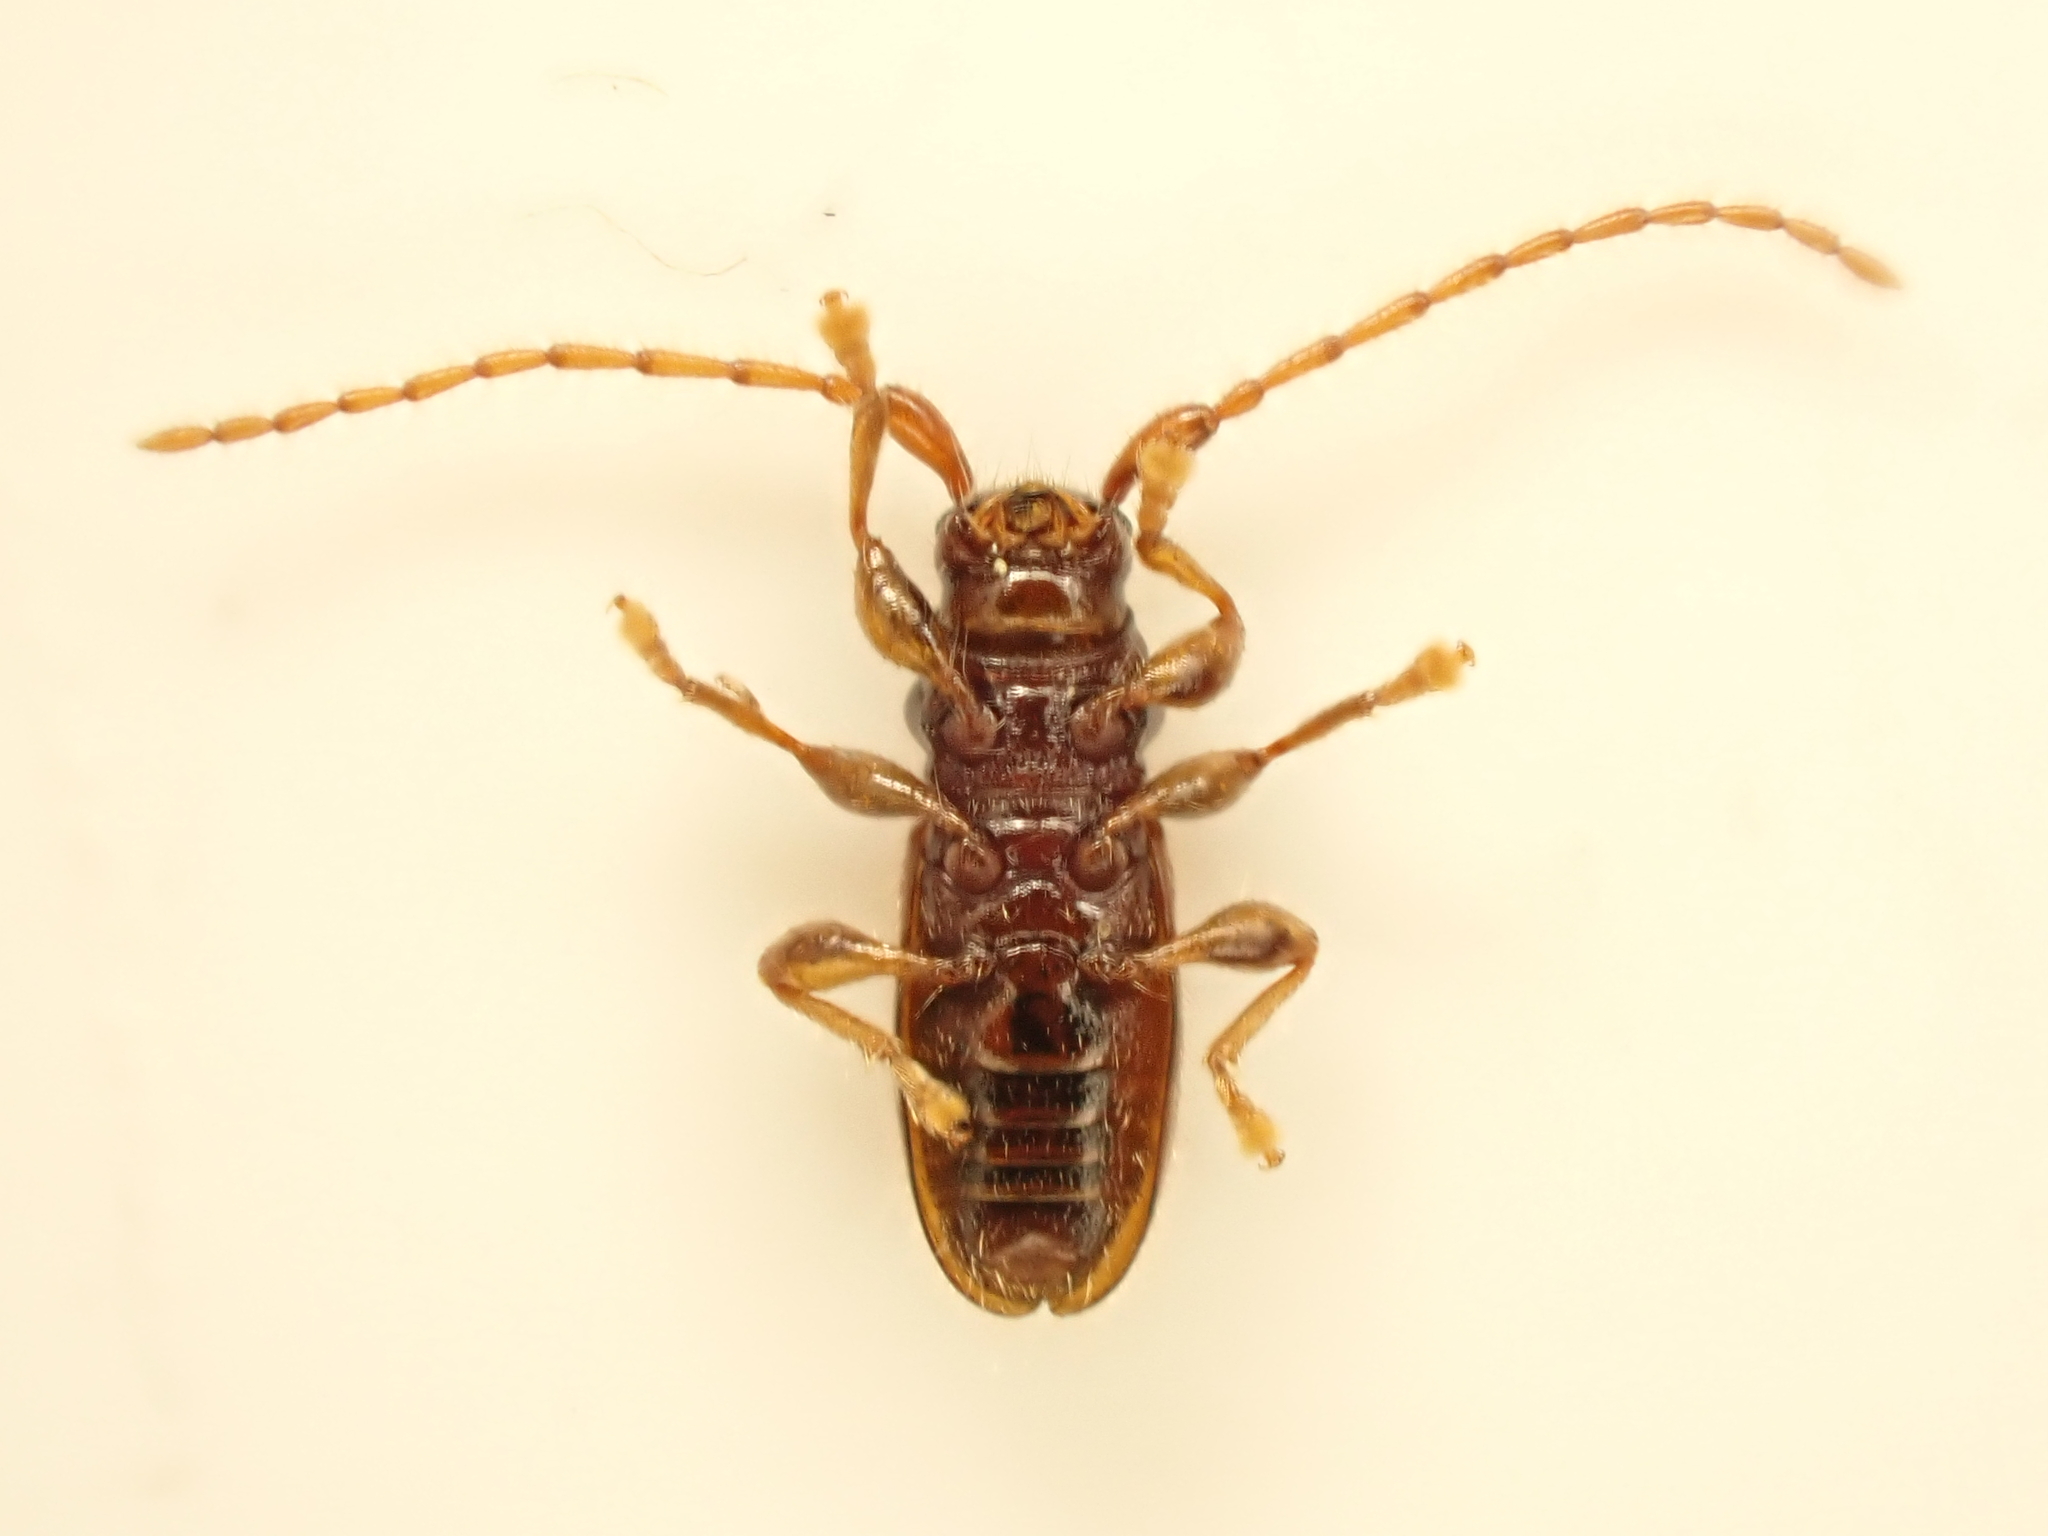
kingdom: Animalia
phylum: Arthropoda
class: Insecta
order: Coleoptera
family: Cerambycidae
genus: Microlamia
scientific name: Microlamia pygmaea
